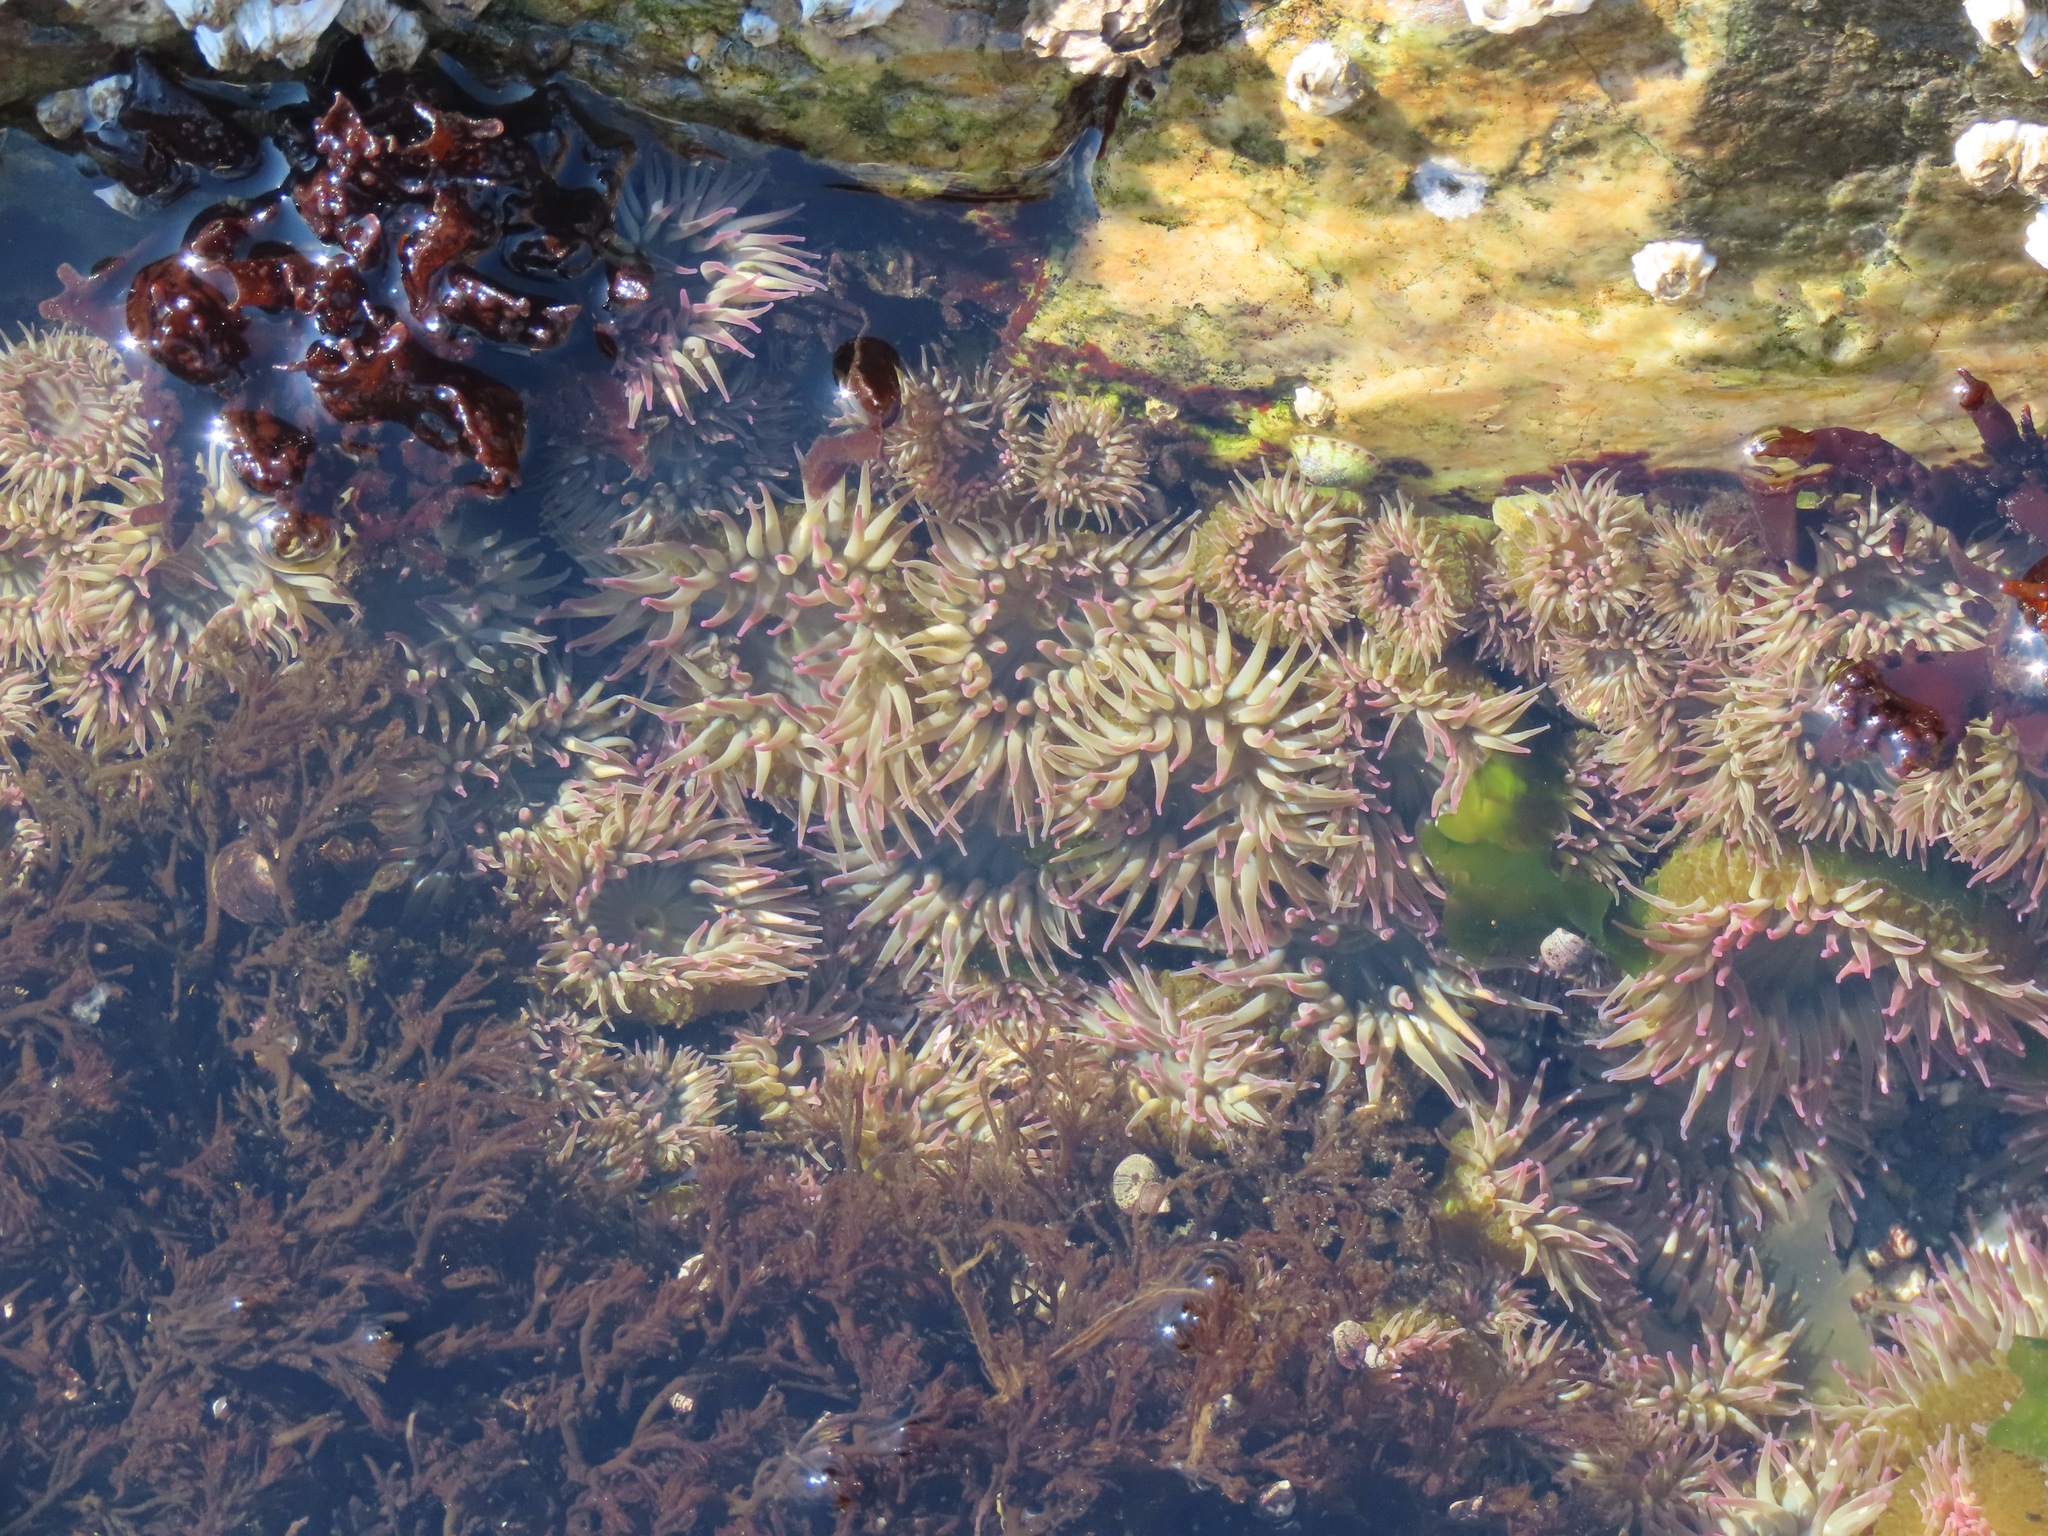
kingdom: Animalia
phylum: Cnidaria
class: Anthozoa
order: Actiniaria
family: Actiniidae
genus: Anthopleura
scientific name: Anthopleura elegantissima
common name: Clonal anemone
